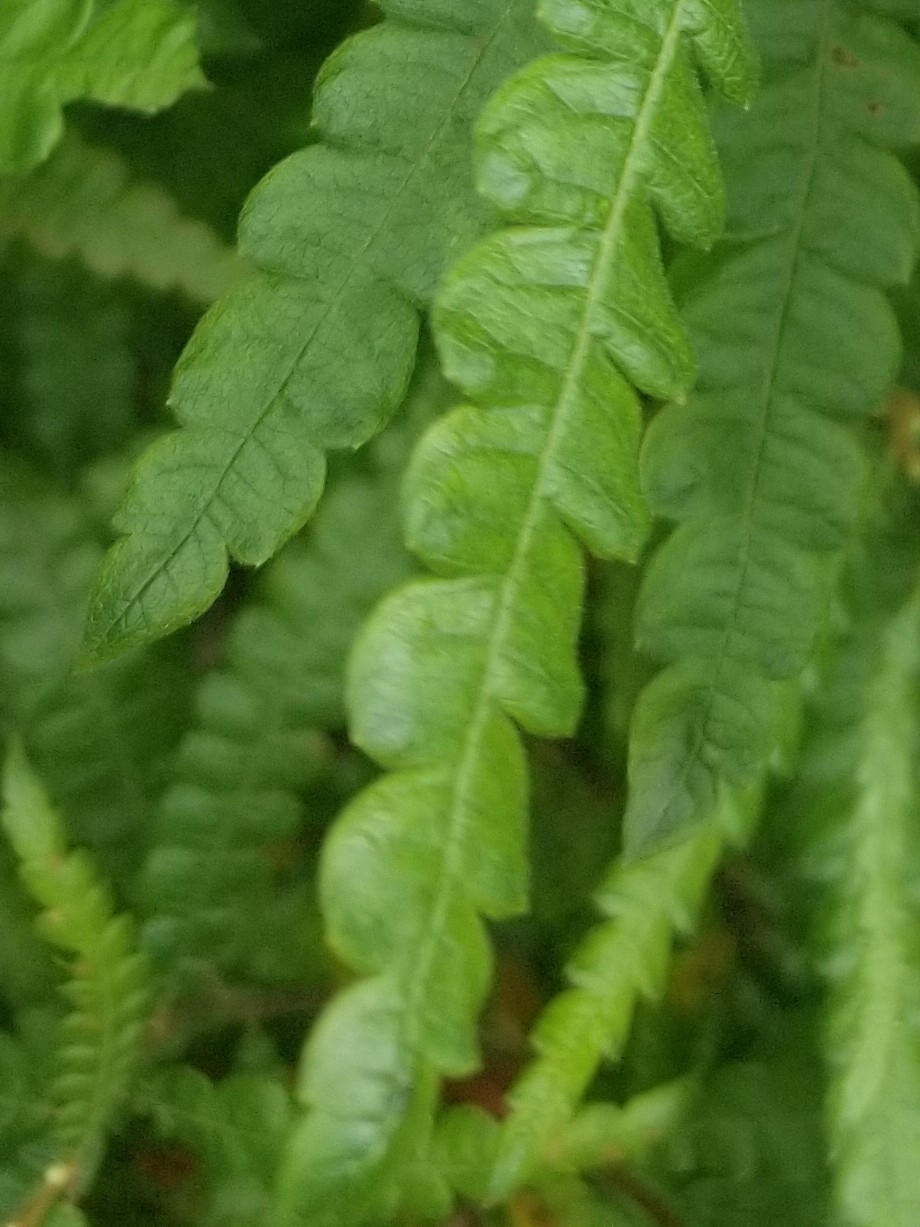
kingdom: Plantae
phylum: Tracheophyta
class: Magnoliopsida
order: Fagales
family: Myricaceae
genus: Comptonia
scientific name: Comptonia peregrina
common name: Sweet-fern
